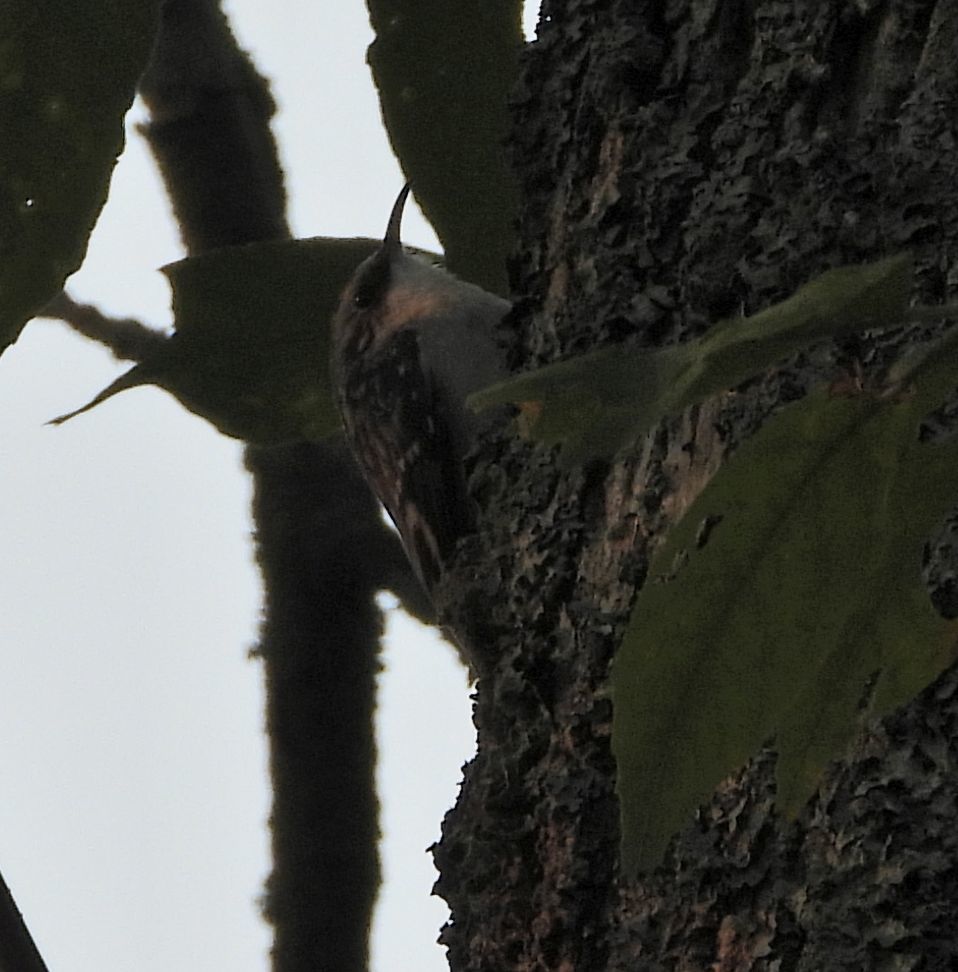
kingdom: Animalia
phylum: Chordata
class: Aves
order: Passeriformes
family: Certhiidae
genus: Certhia
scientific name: Certhia americana
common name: Brown creeper
